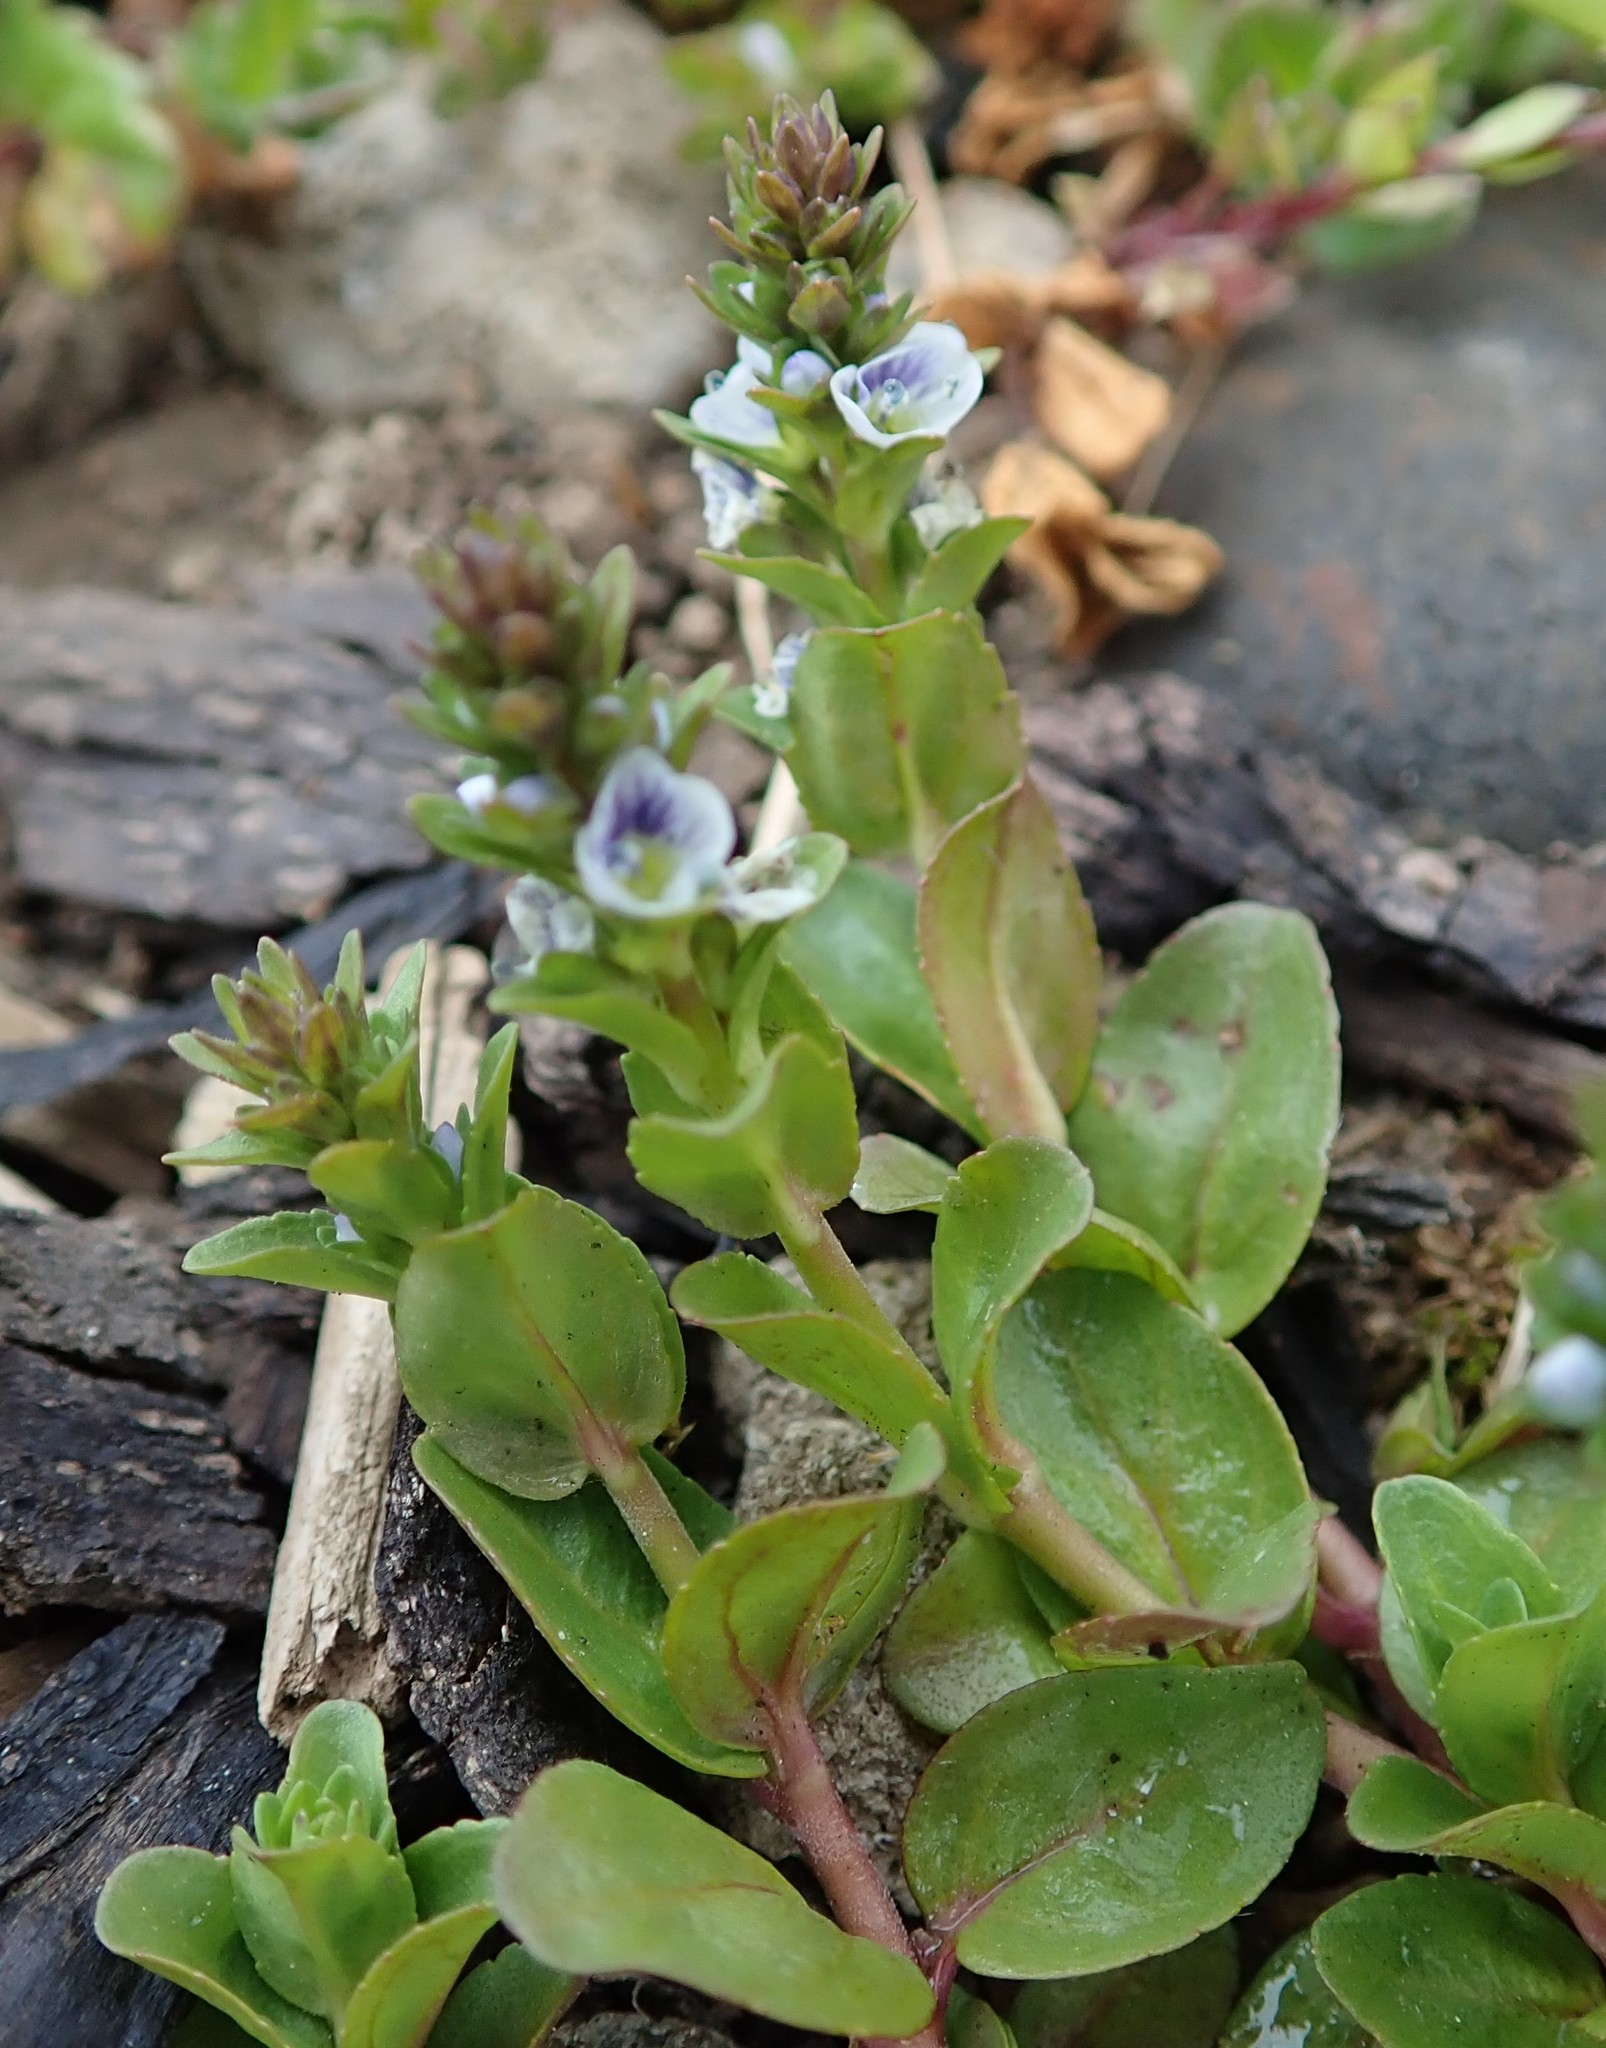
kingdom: Plantae
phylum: Tracheophyta
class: Magnoliopsida
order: Lamiales
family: Plantaginaceae
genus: Veronica
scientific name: Veronica serpyllifolia
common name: Thyme-leaved speedwell
